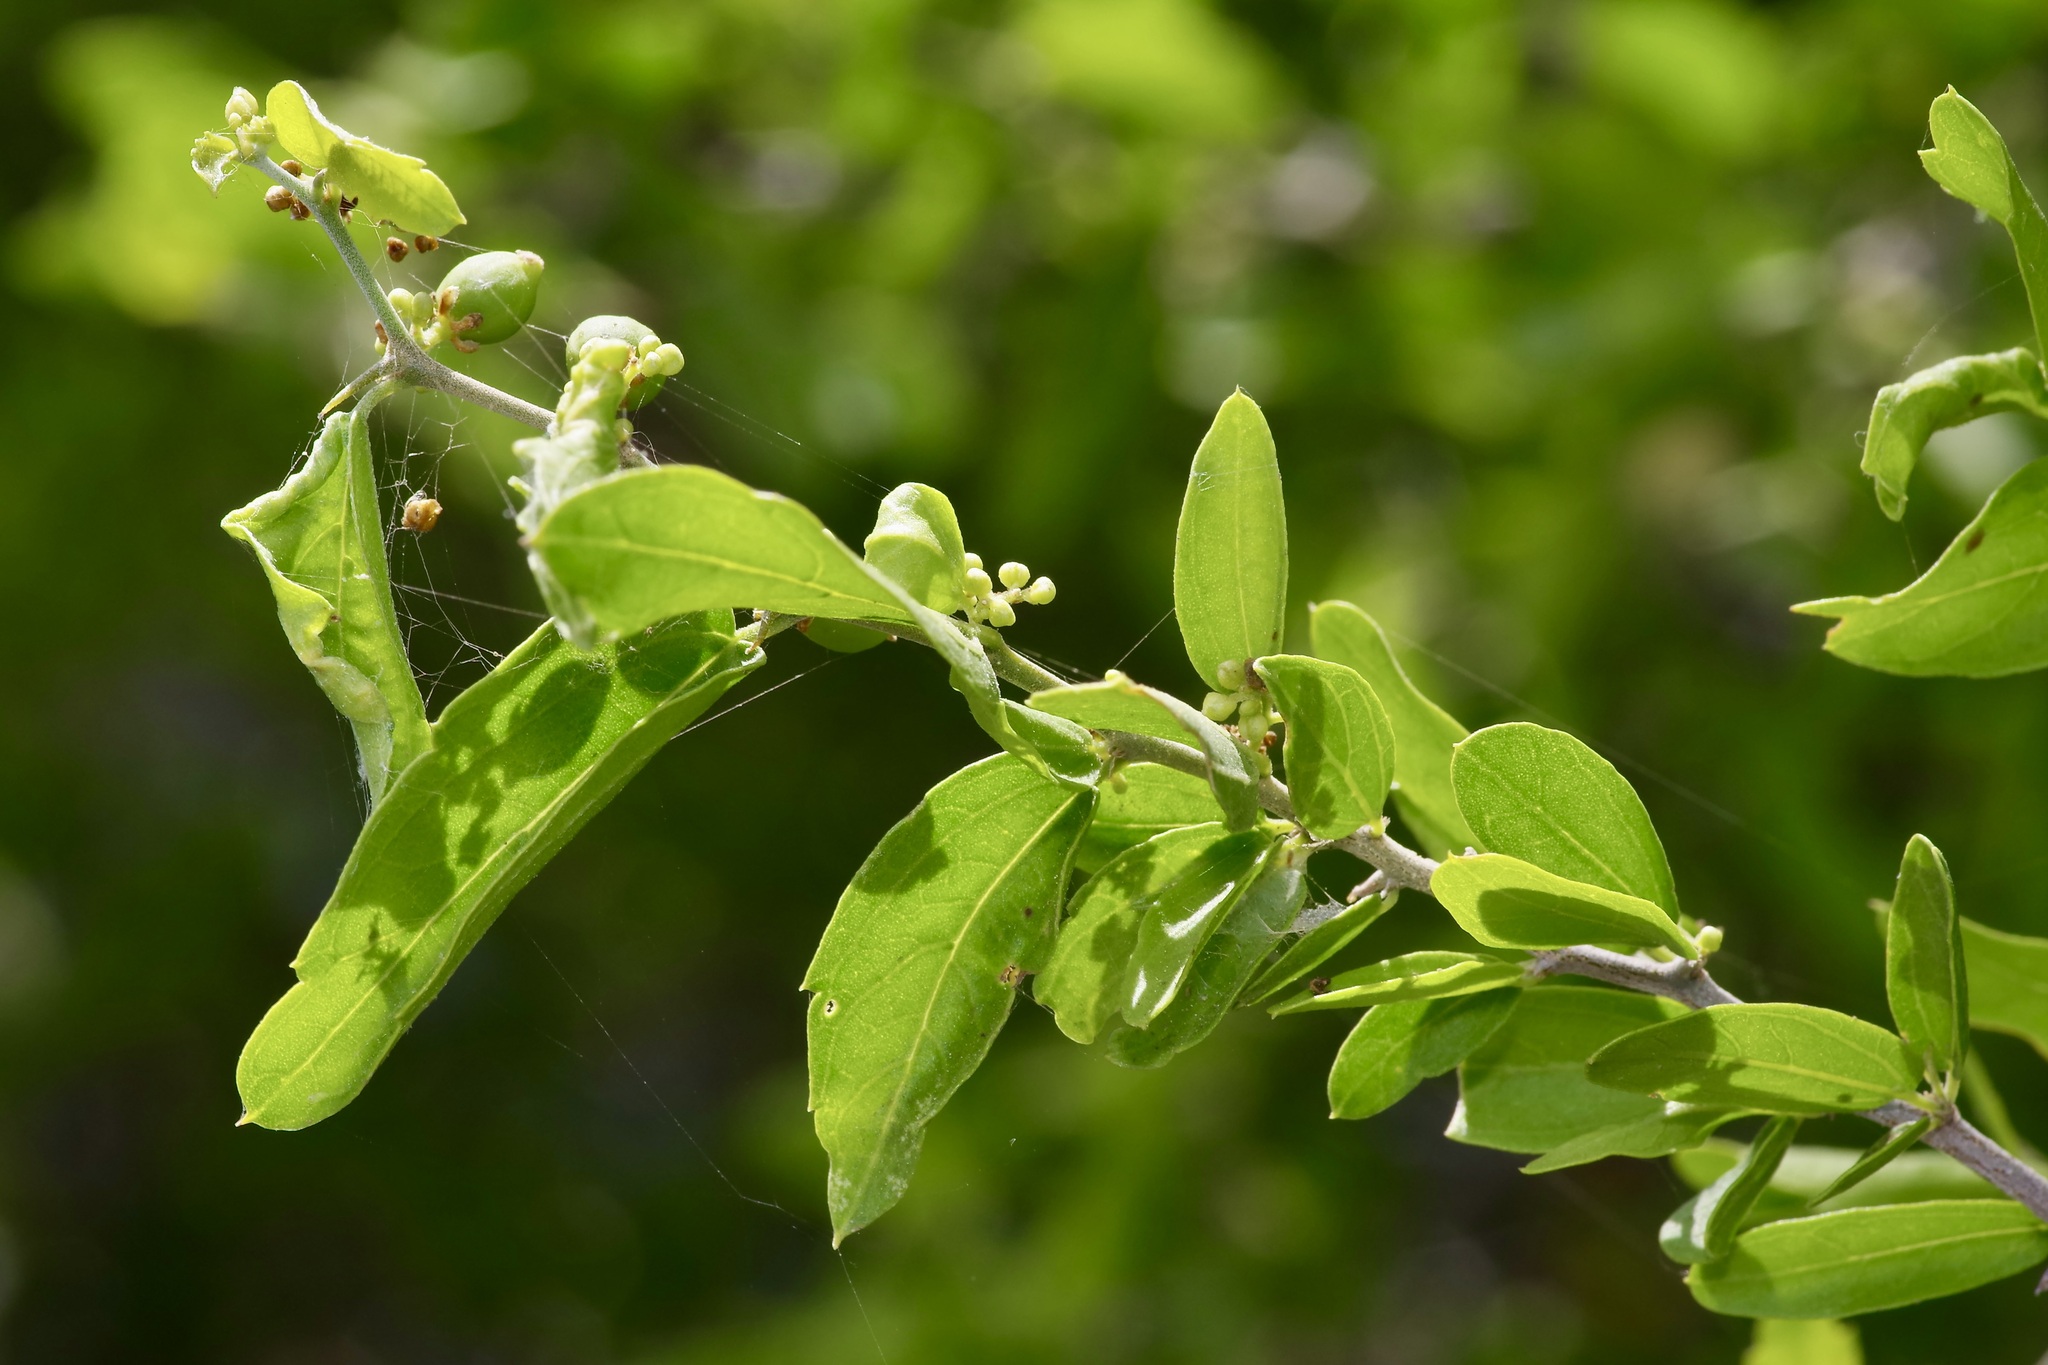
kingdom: Plantae
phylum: Tracheophyta
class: Magnoliopsida
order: Rosales
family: Cannabaceae
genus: Celtis
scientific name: Celtis pallida
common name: Desert hackberry
